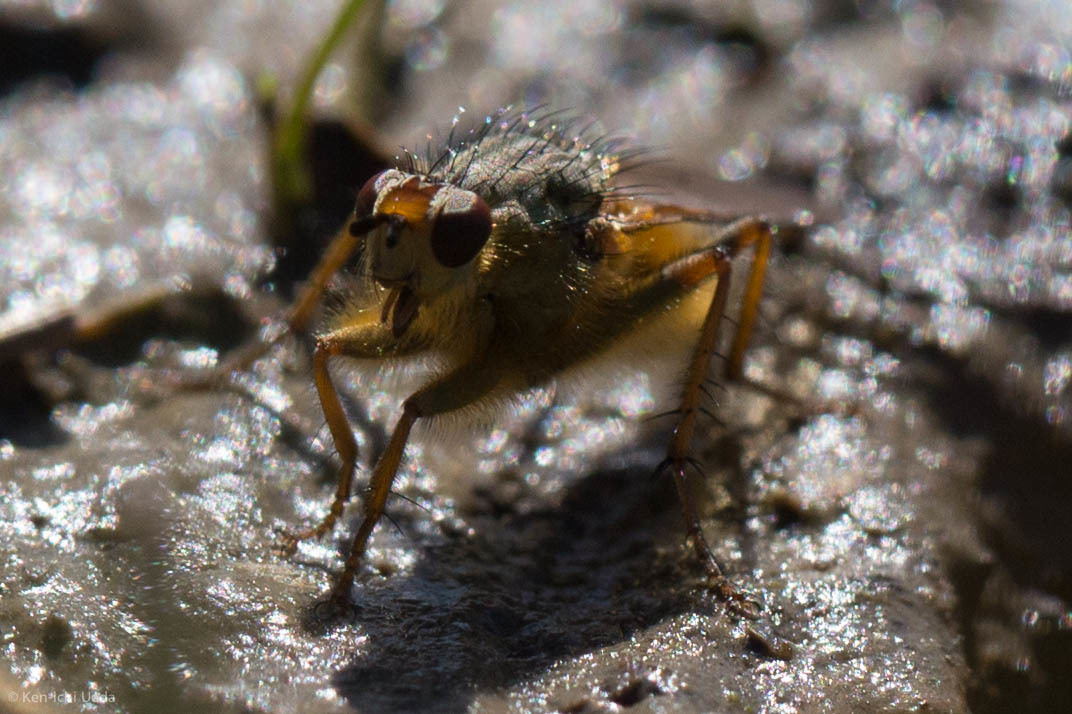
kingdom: Animalia
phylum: Arthropoda
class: Insecta
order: Diptera
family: Scathophagidae
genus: Scathophaga
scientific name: Scathophaga stercoraria
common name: Yellow dung fly
